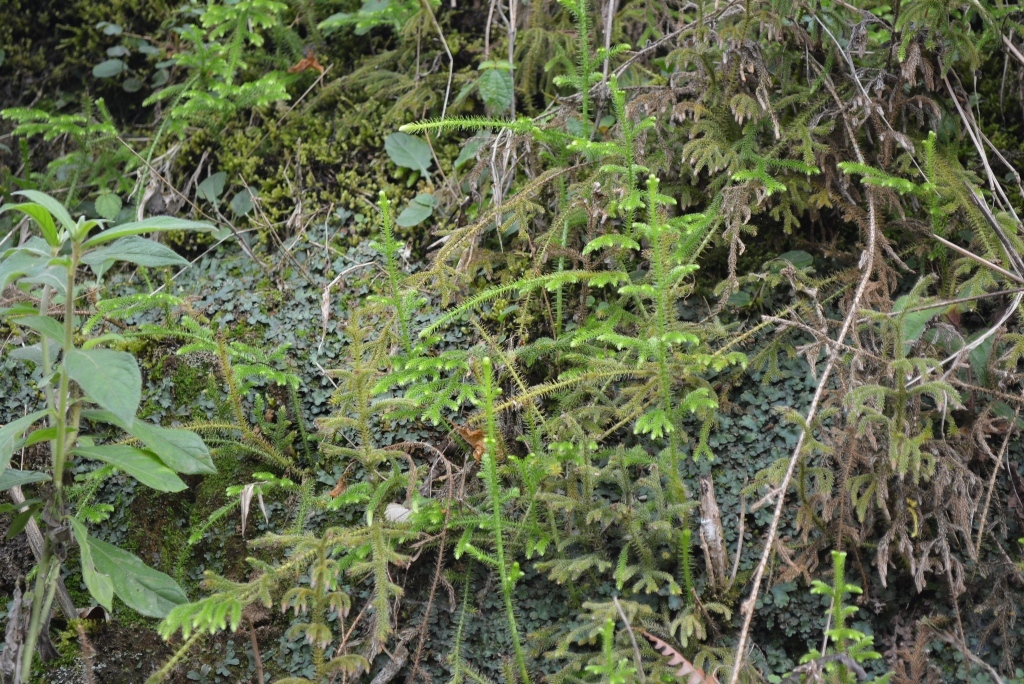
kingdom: Plantae
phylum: Tracheophyta
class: Lycopodiopsida
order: Lycopodiales
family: Lycopodiaceae
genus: Palhinhaea
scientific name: Palhinhaea cernua
